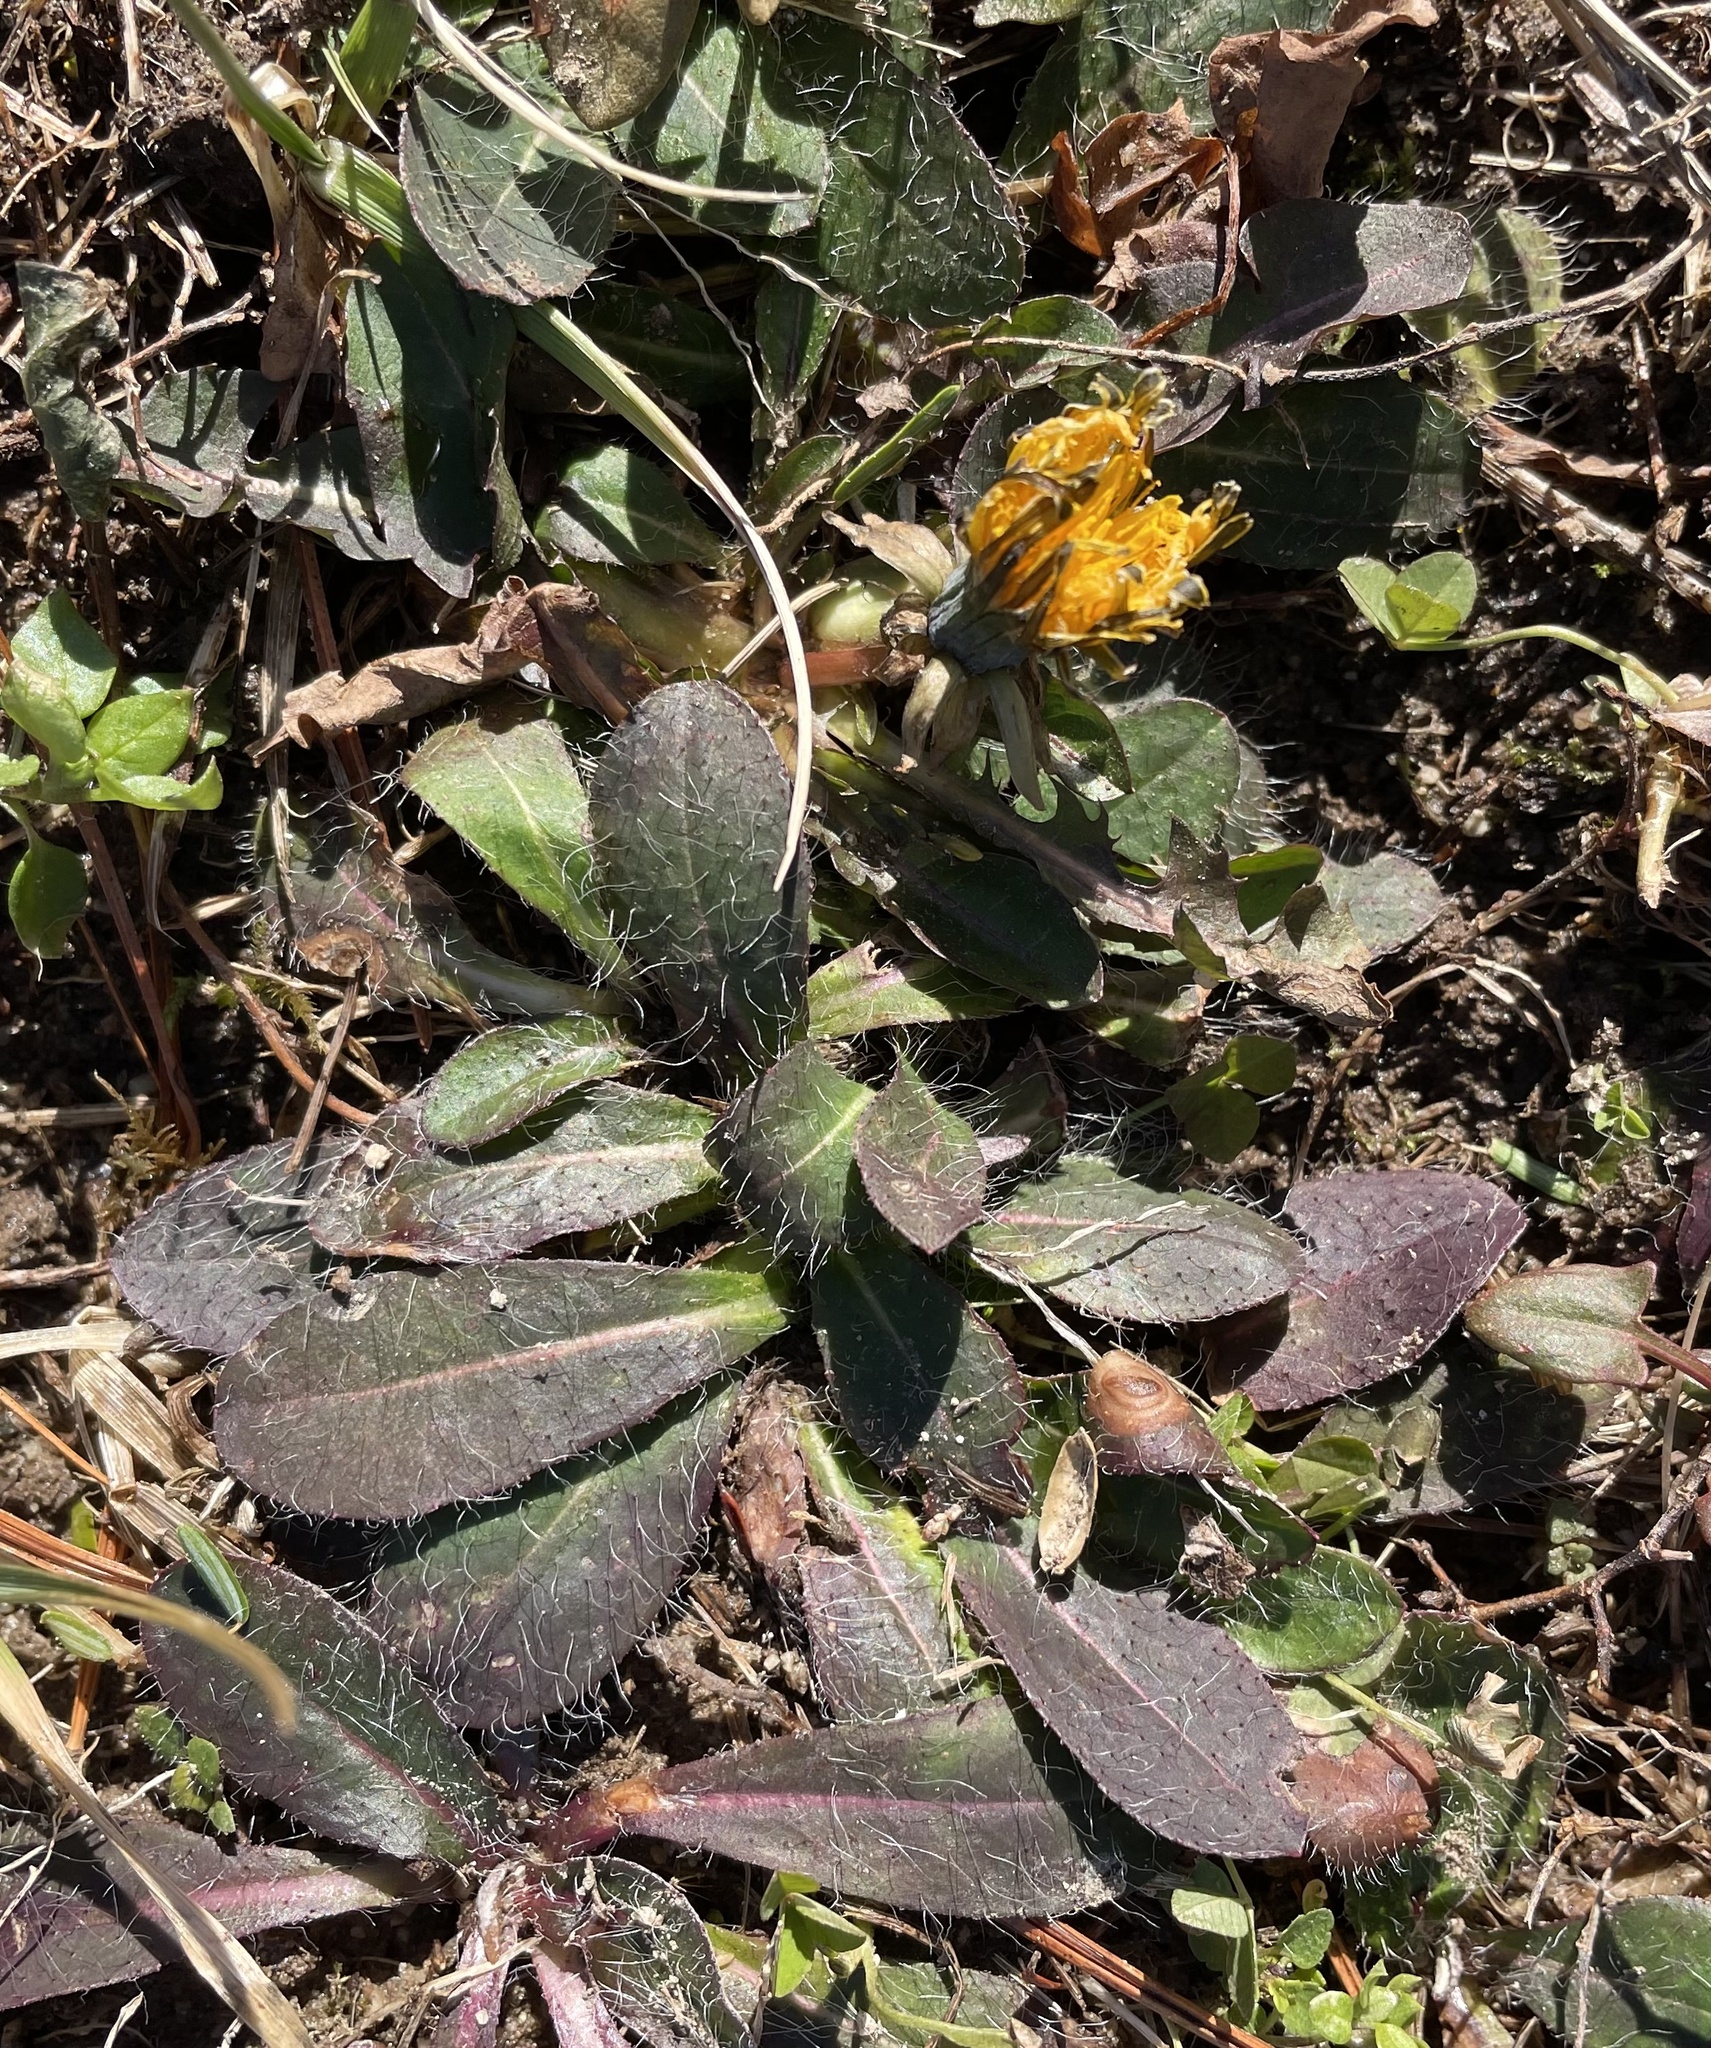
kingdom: Plantae
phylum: Tracheophyta
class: Magnoliopsida
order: Asterales
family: Asteraceae
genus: Pilosella
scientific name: Pilosella officinarum
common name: Mouse-ear hawkweed
